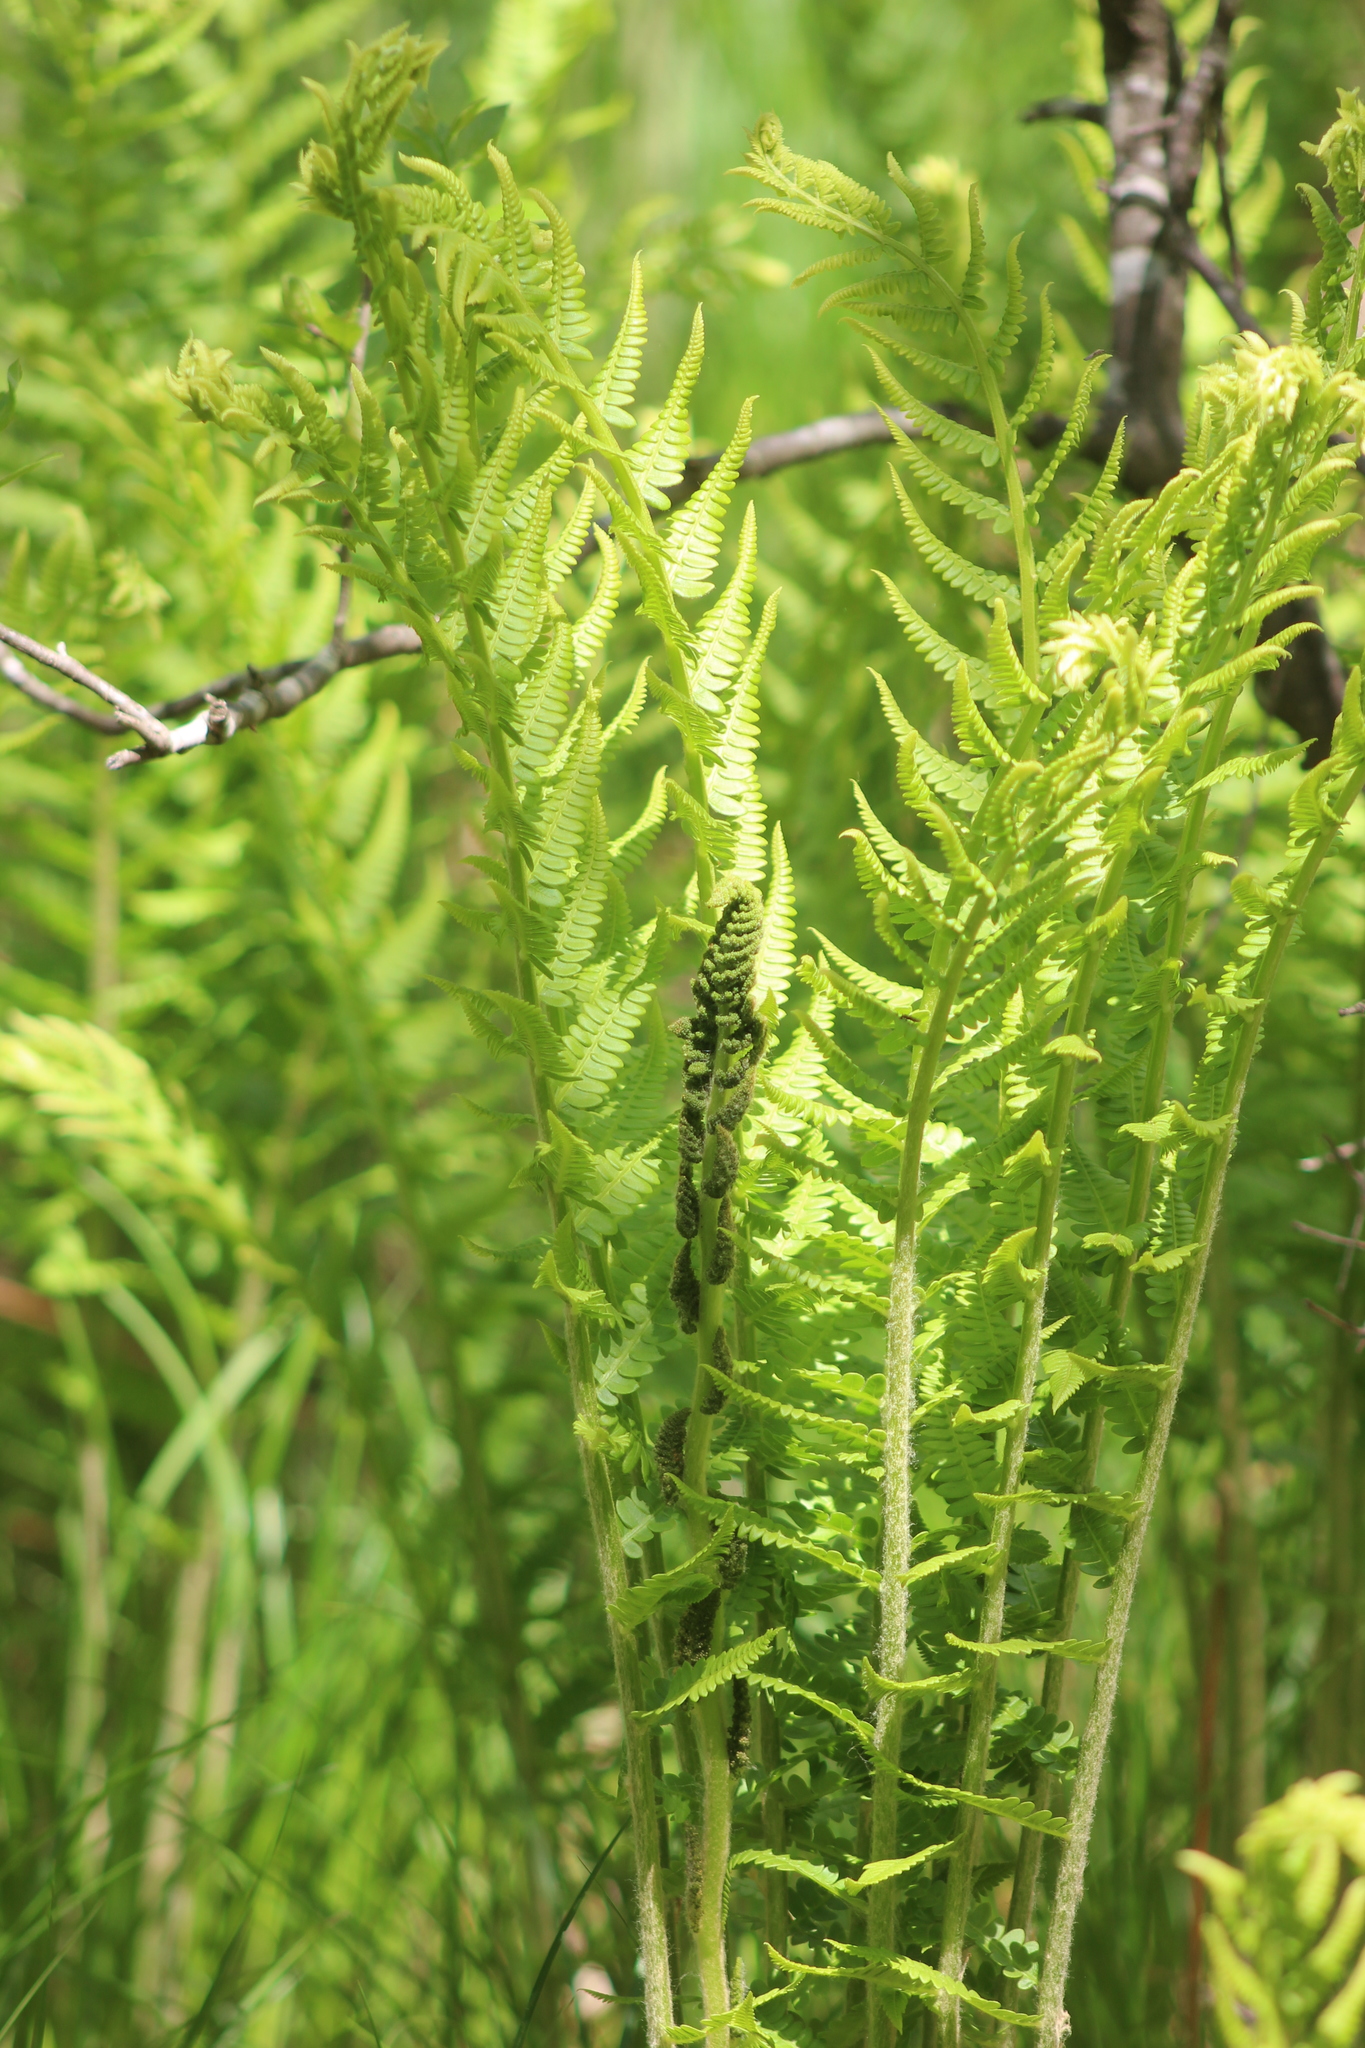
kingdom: Plantae
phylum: Tracheophyta
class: Polypodiopsida
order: Osmundales
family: Osmundaceae
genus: Osmundastrum
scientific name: Osmundastrum cinnamomeum
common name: Cinnamon fern
